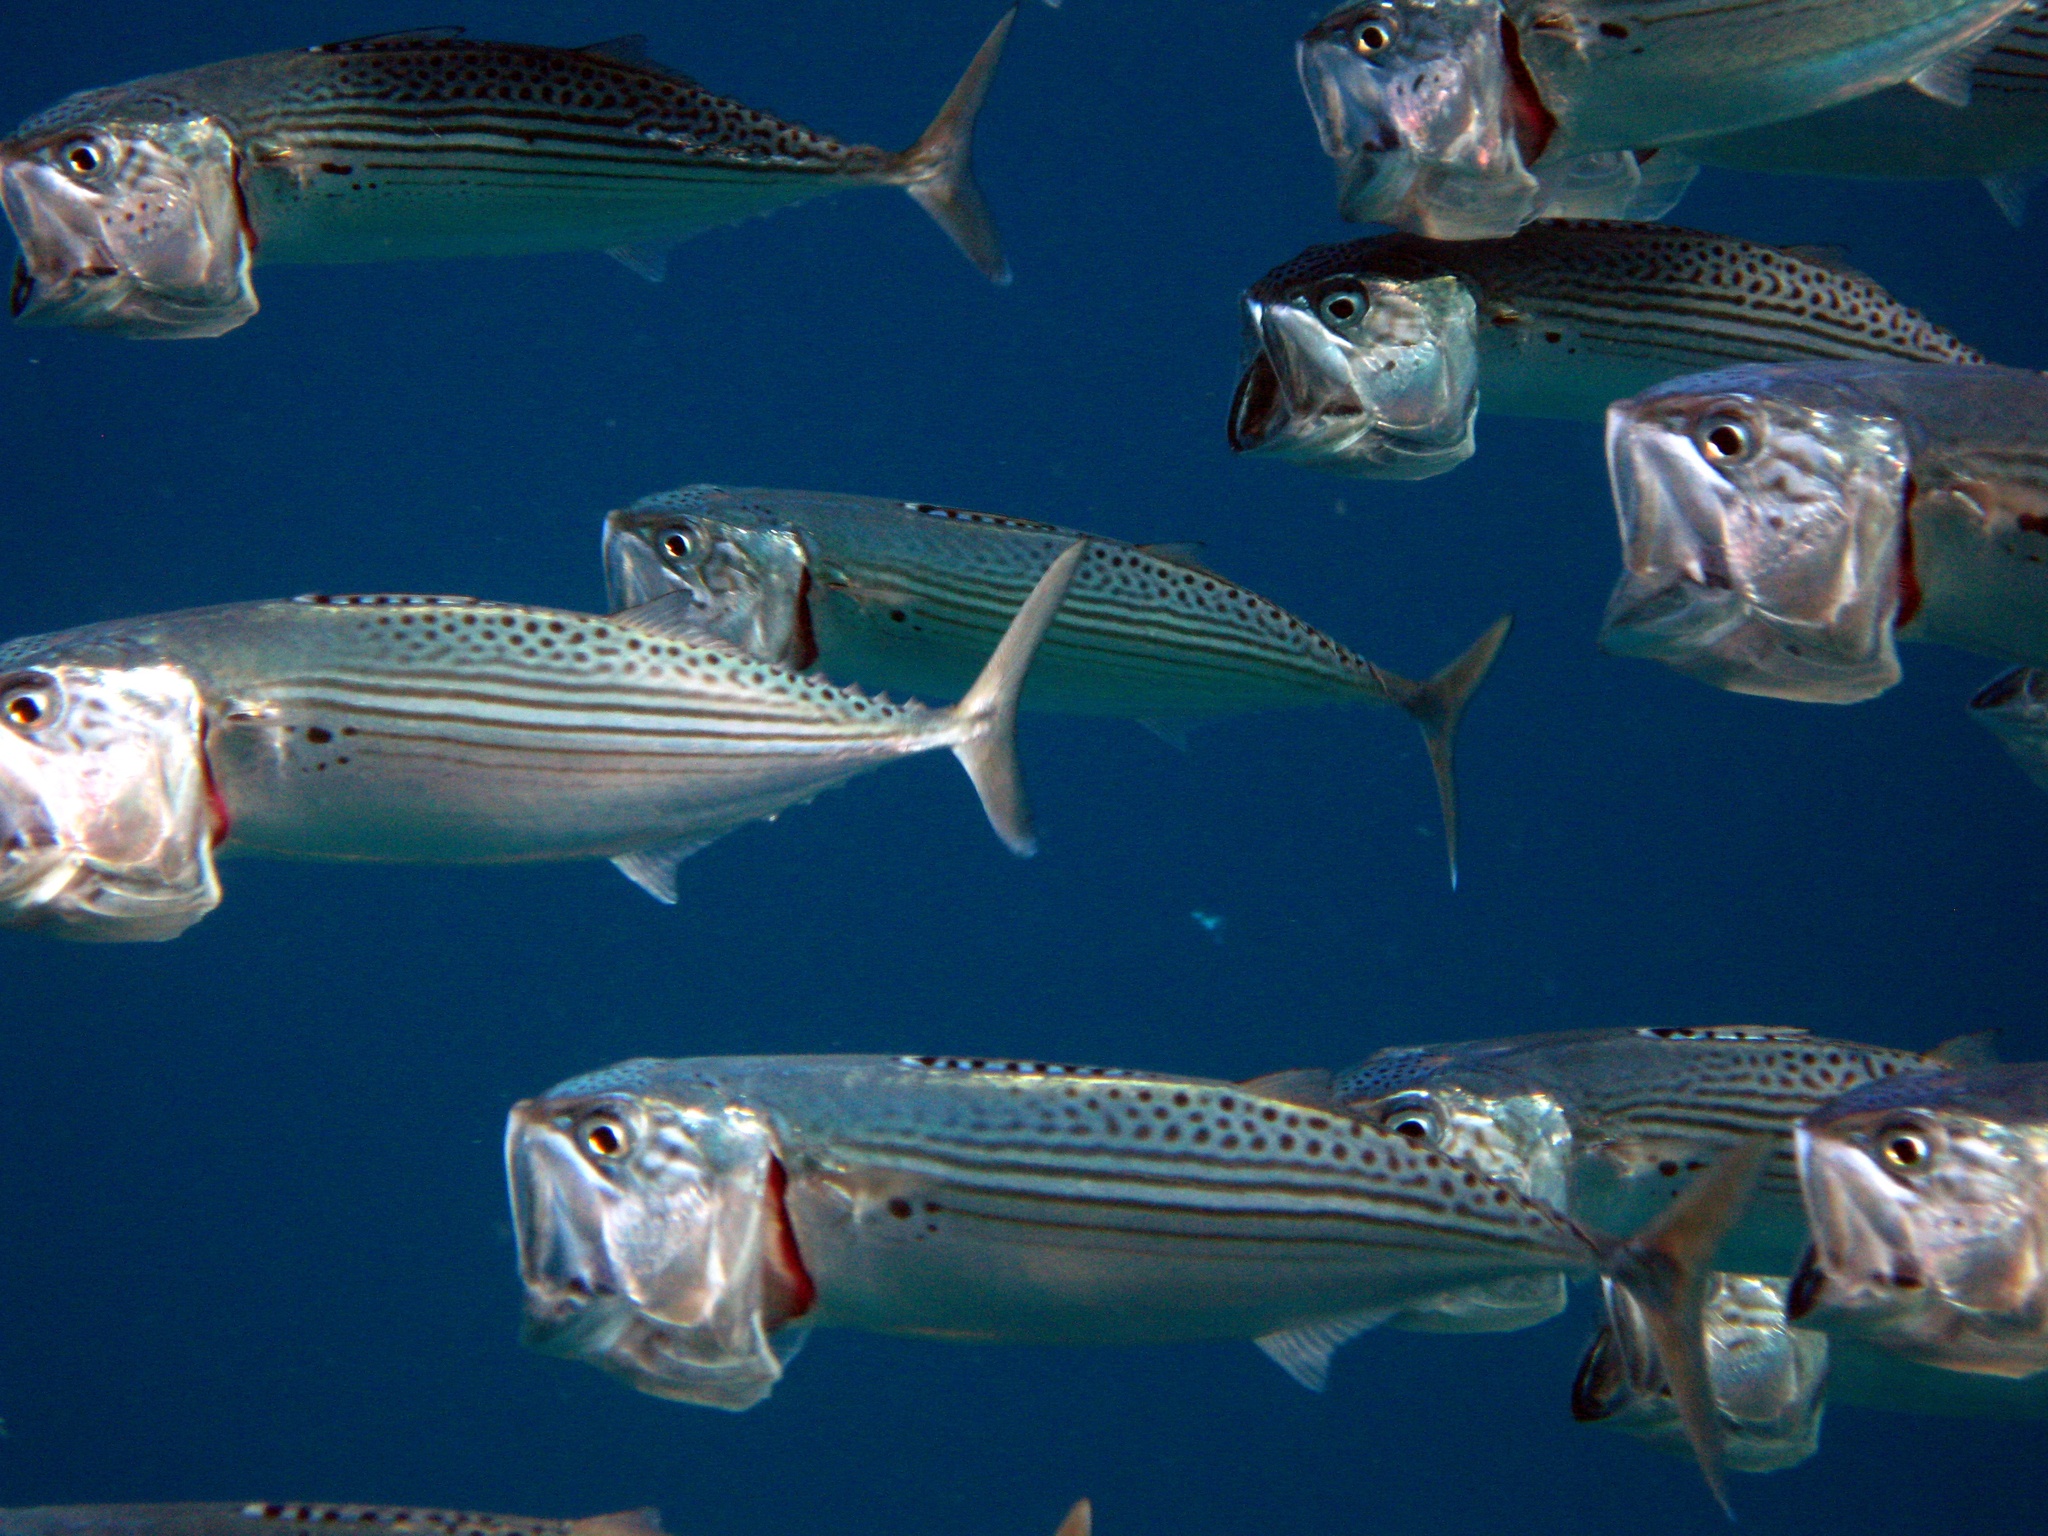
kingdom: Animalia
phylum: Chordata
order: Perciformes
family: Scombridae
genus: Rastrelliger
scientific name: Rastrelliger kanagurta
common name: Indian mackerel
